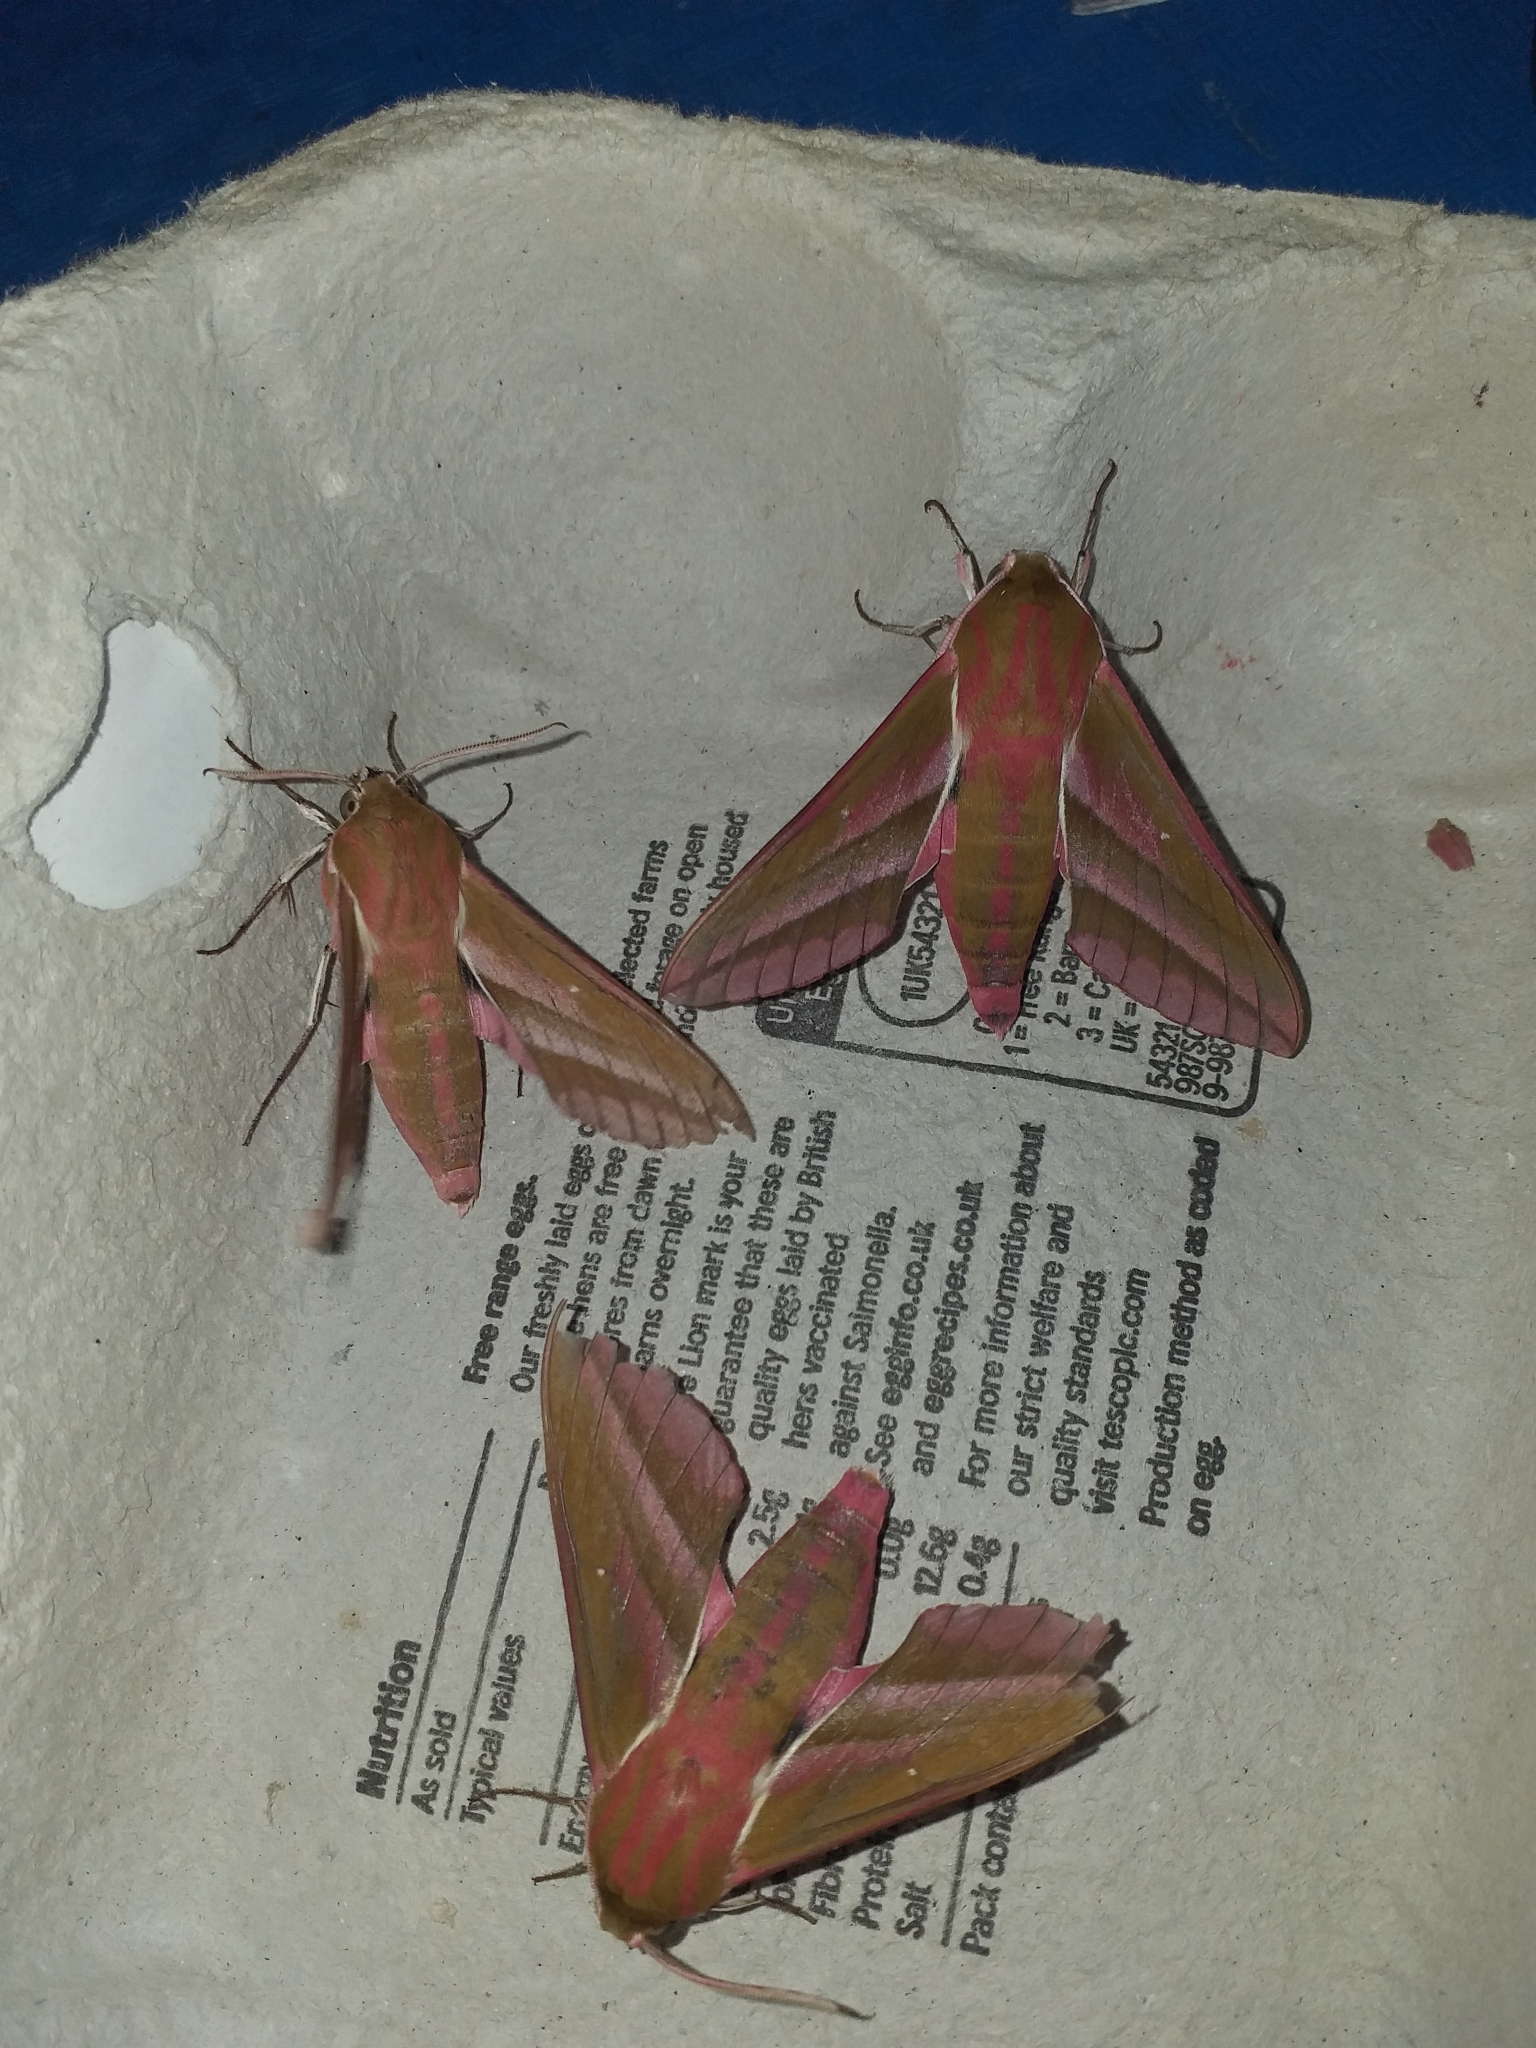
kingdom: Animalia
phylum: Arthropoda
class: Insecta
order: Lepidoptera
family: Sphingidae
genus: Deilephila
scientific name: Deilephila elpenor
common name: Elephant hawk-moth
